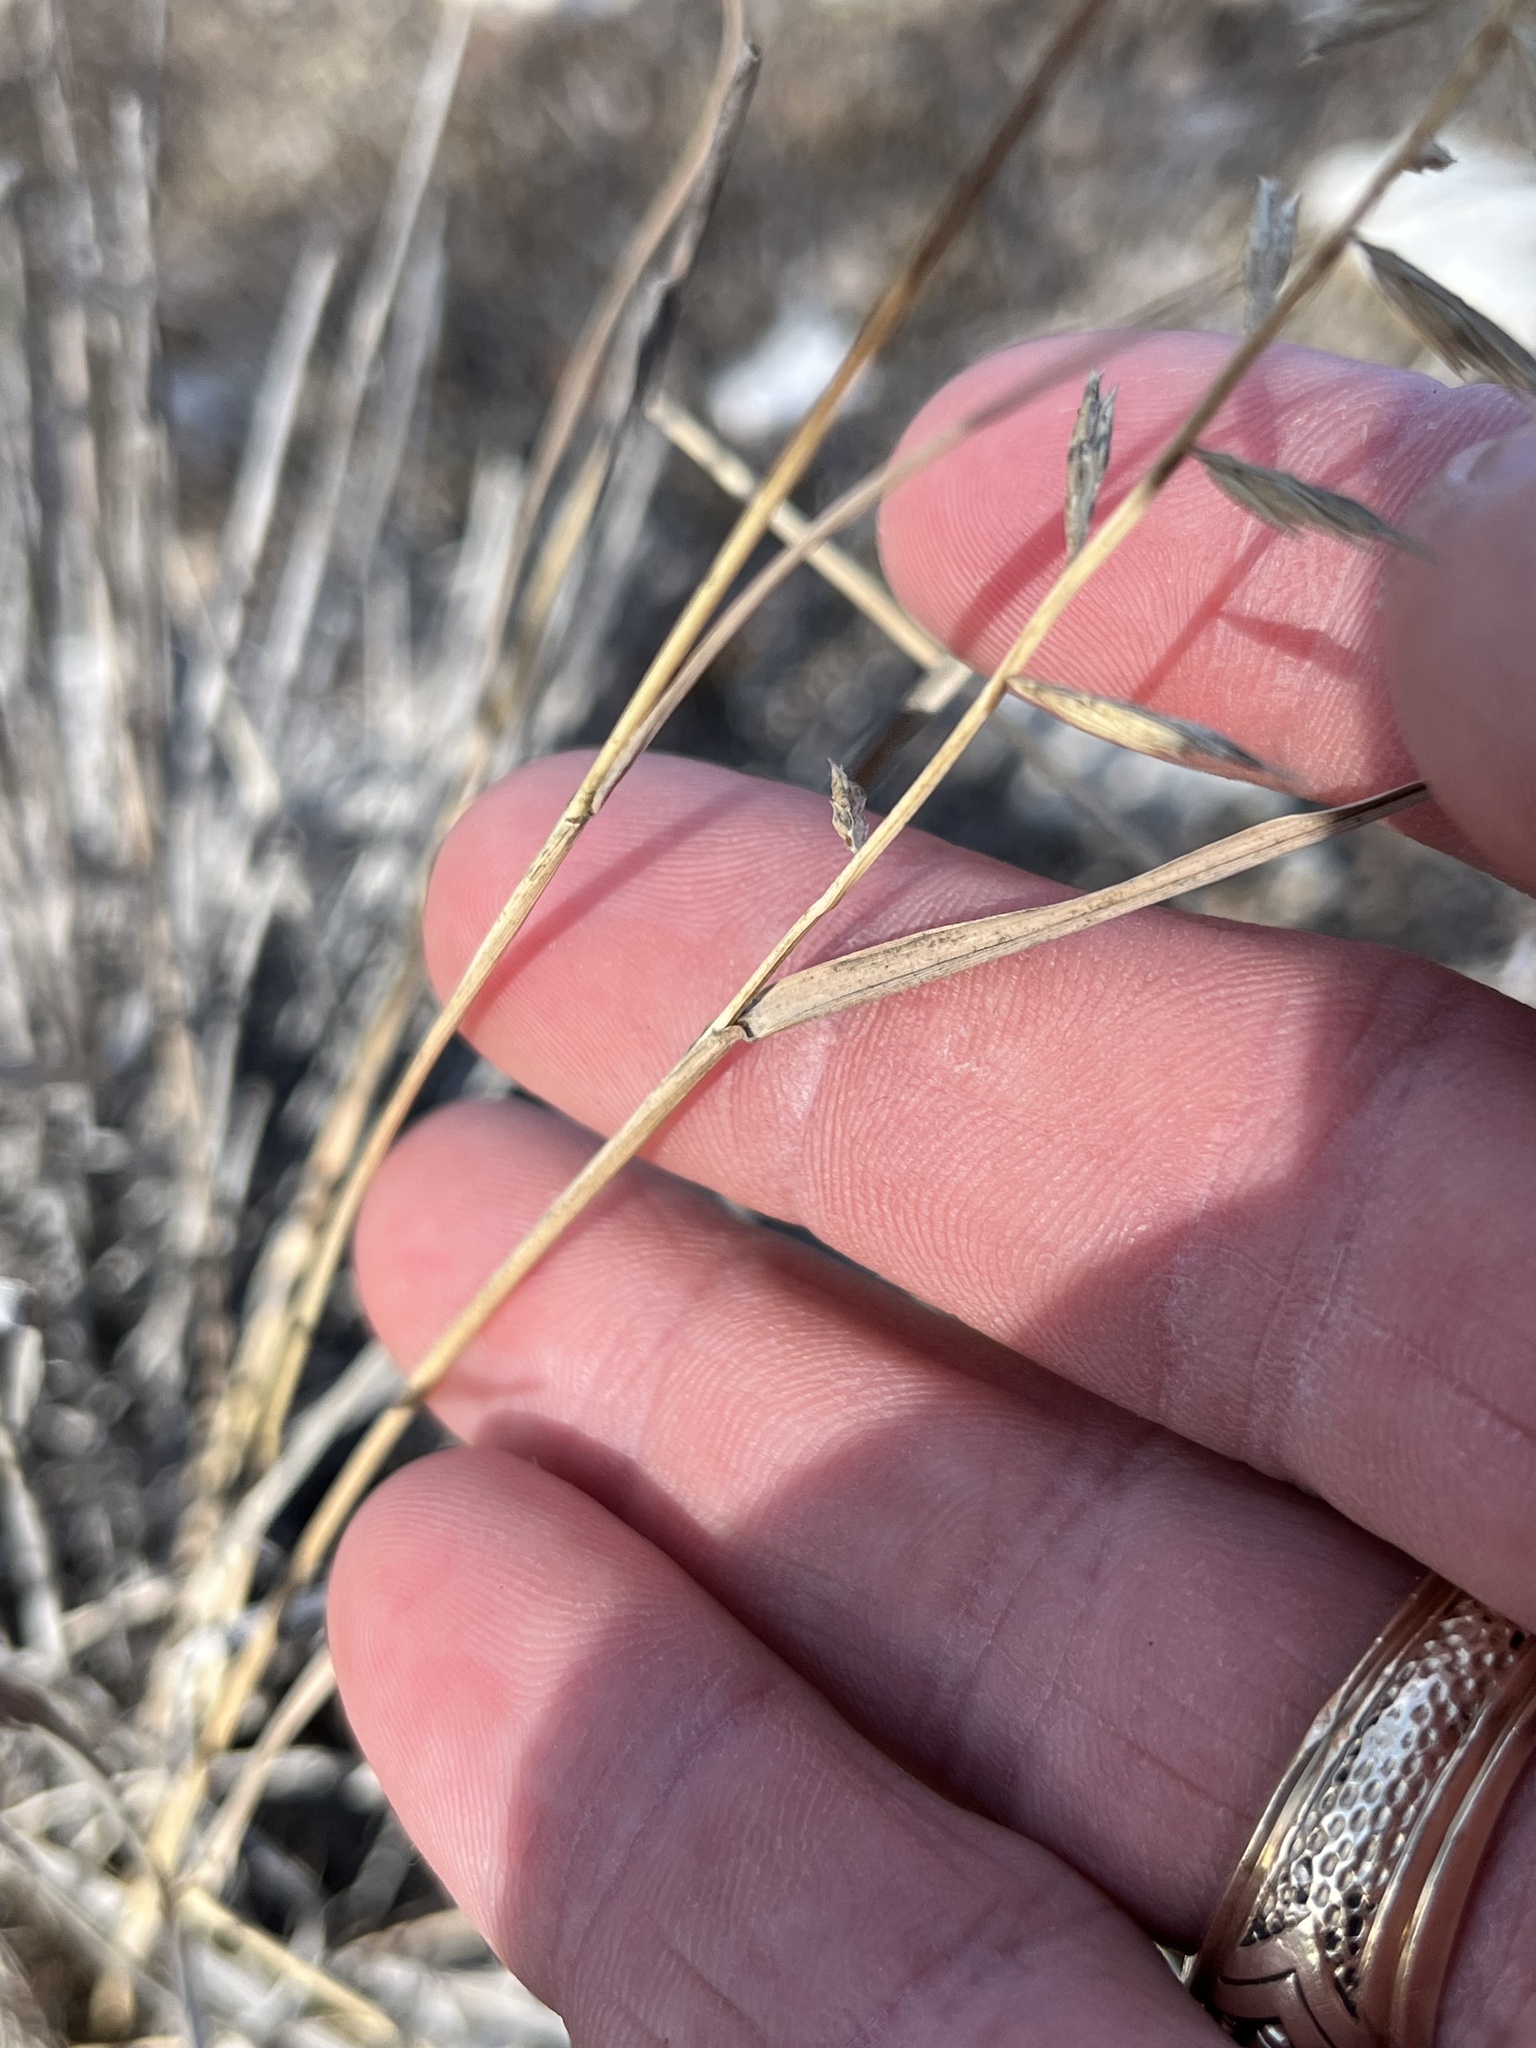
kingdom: Plantae
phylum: Tracheophyta
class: Liliopsida
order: Poales
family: Poaceae
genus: Bouteloua
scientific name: Bouteloua curtipendula
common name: Side-oats grama
